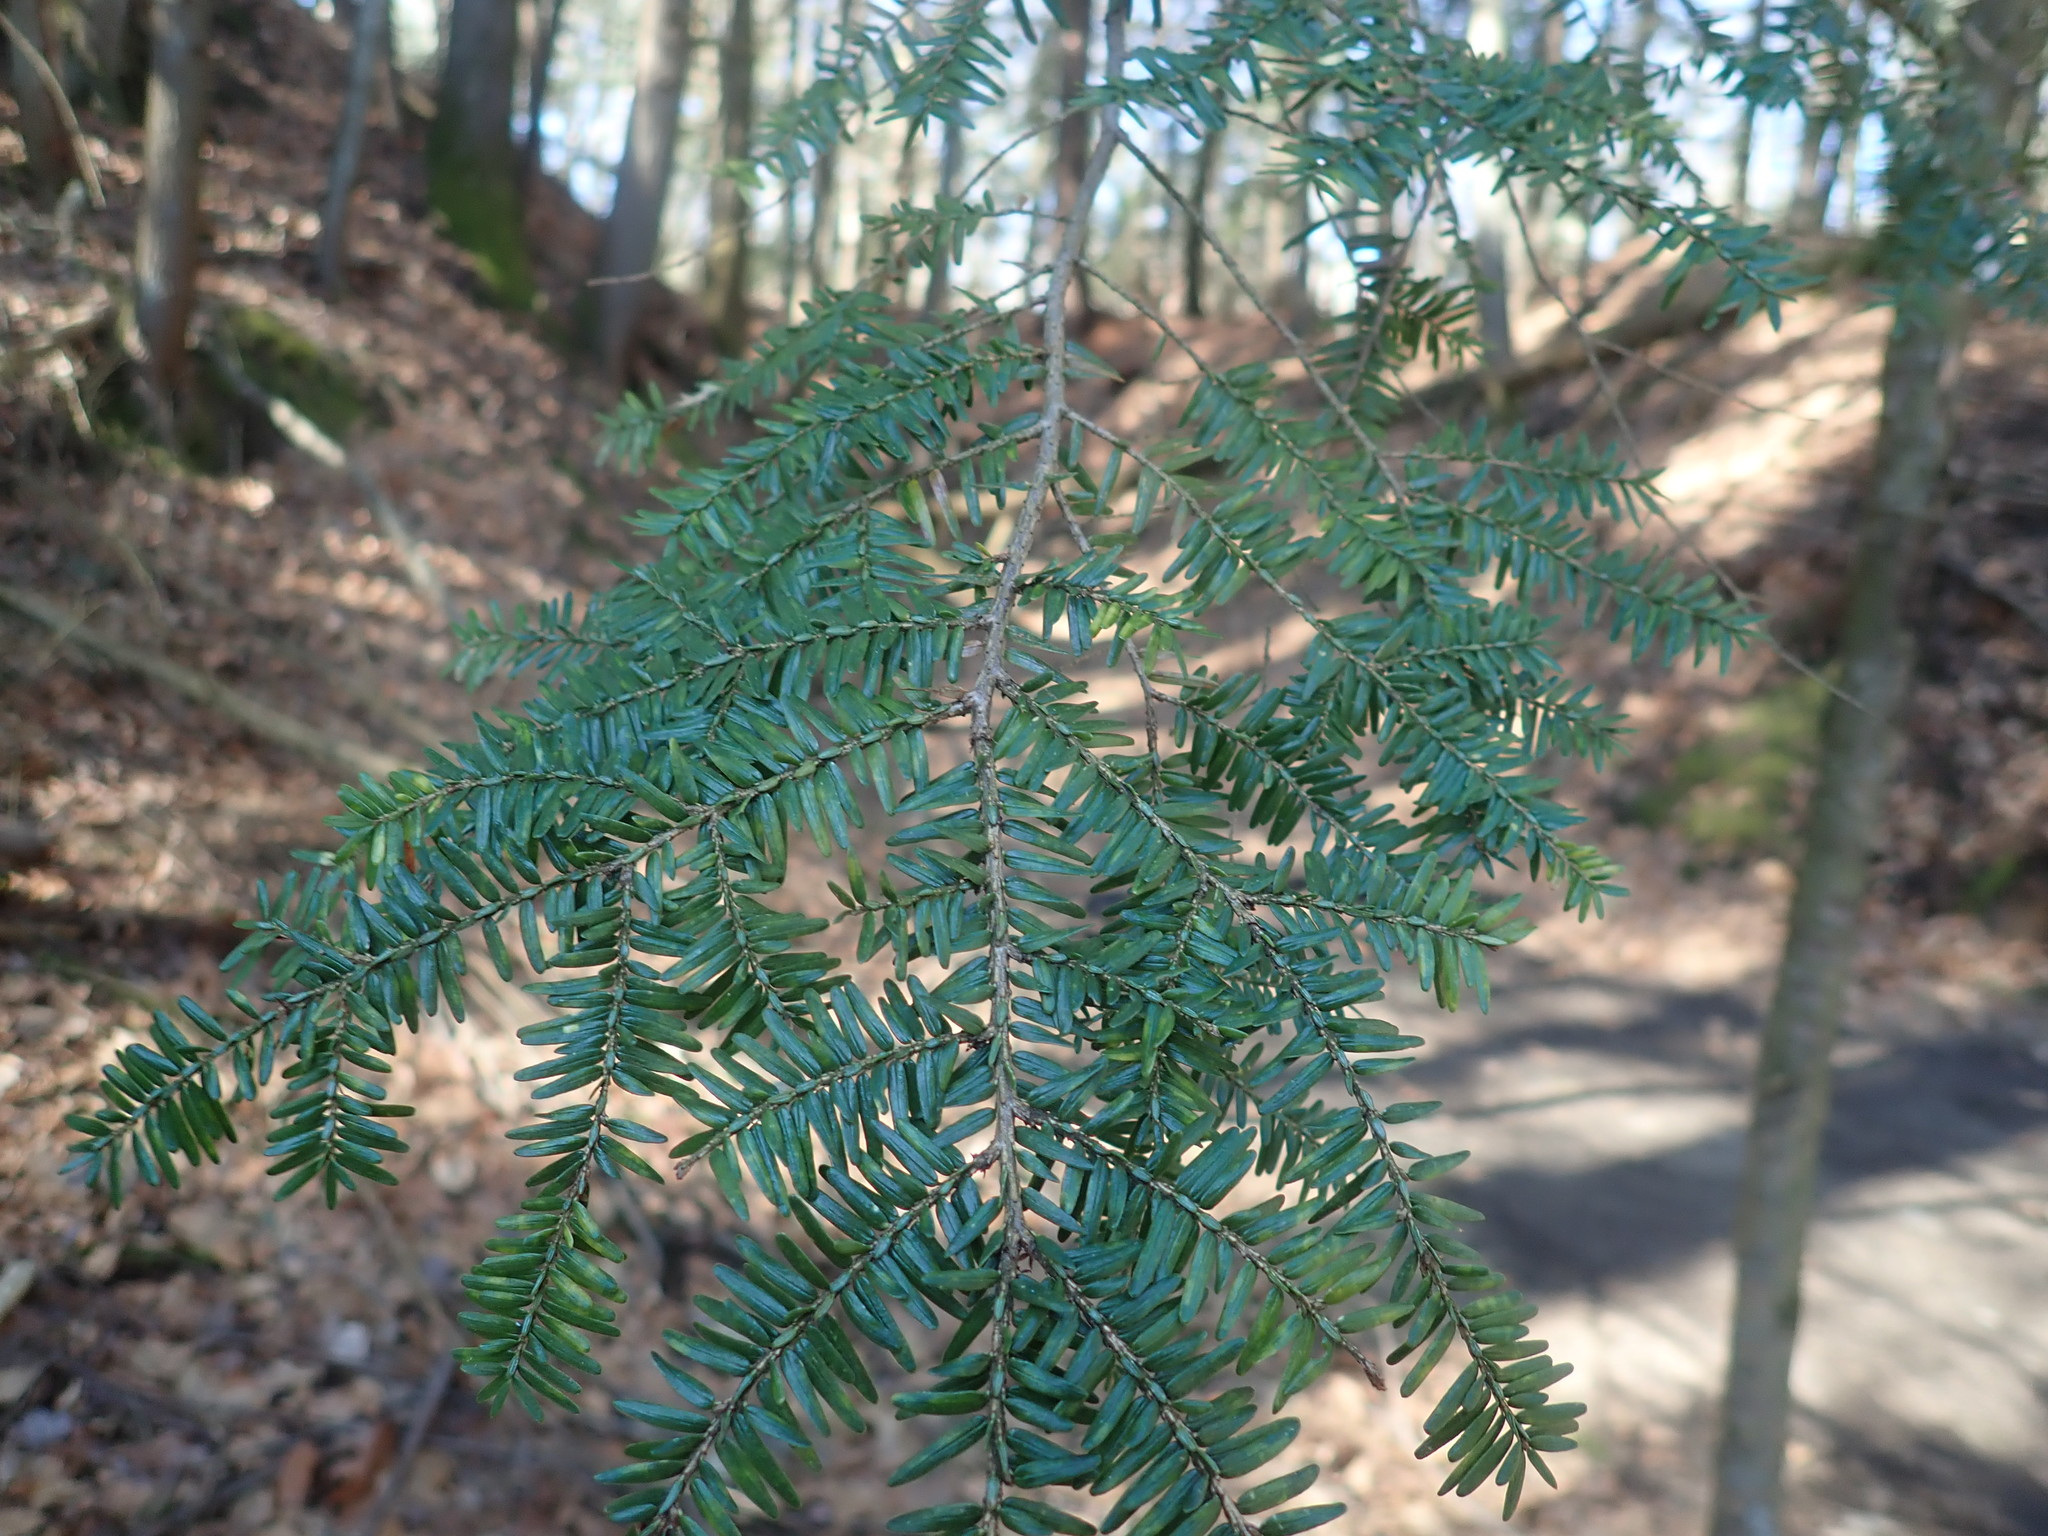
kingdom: Plantae
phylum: Tracheophyta
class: Pinopsida
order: Pinales
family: Pinaceae
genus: Tsuga
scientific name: Tsuga canadensis
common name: Eastern hemlock
